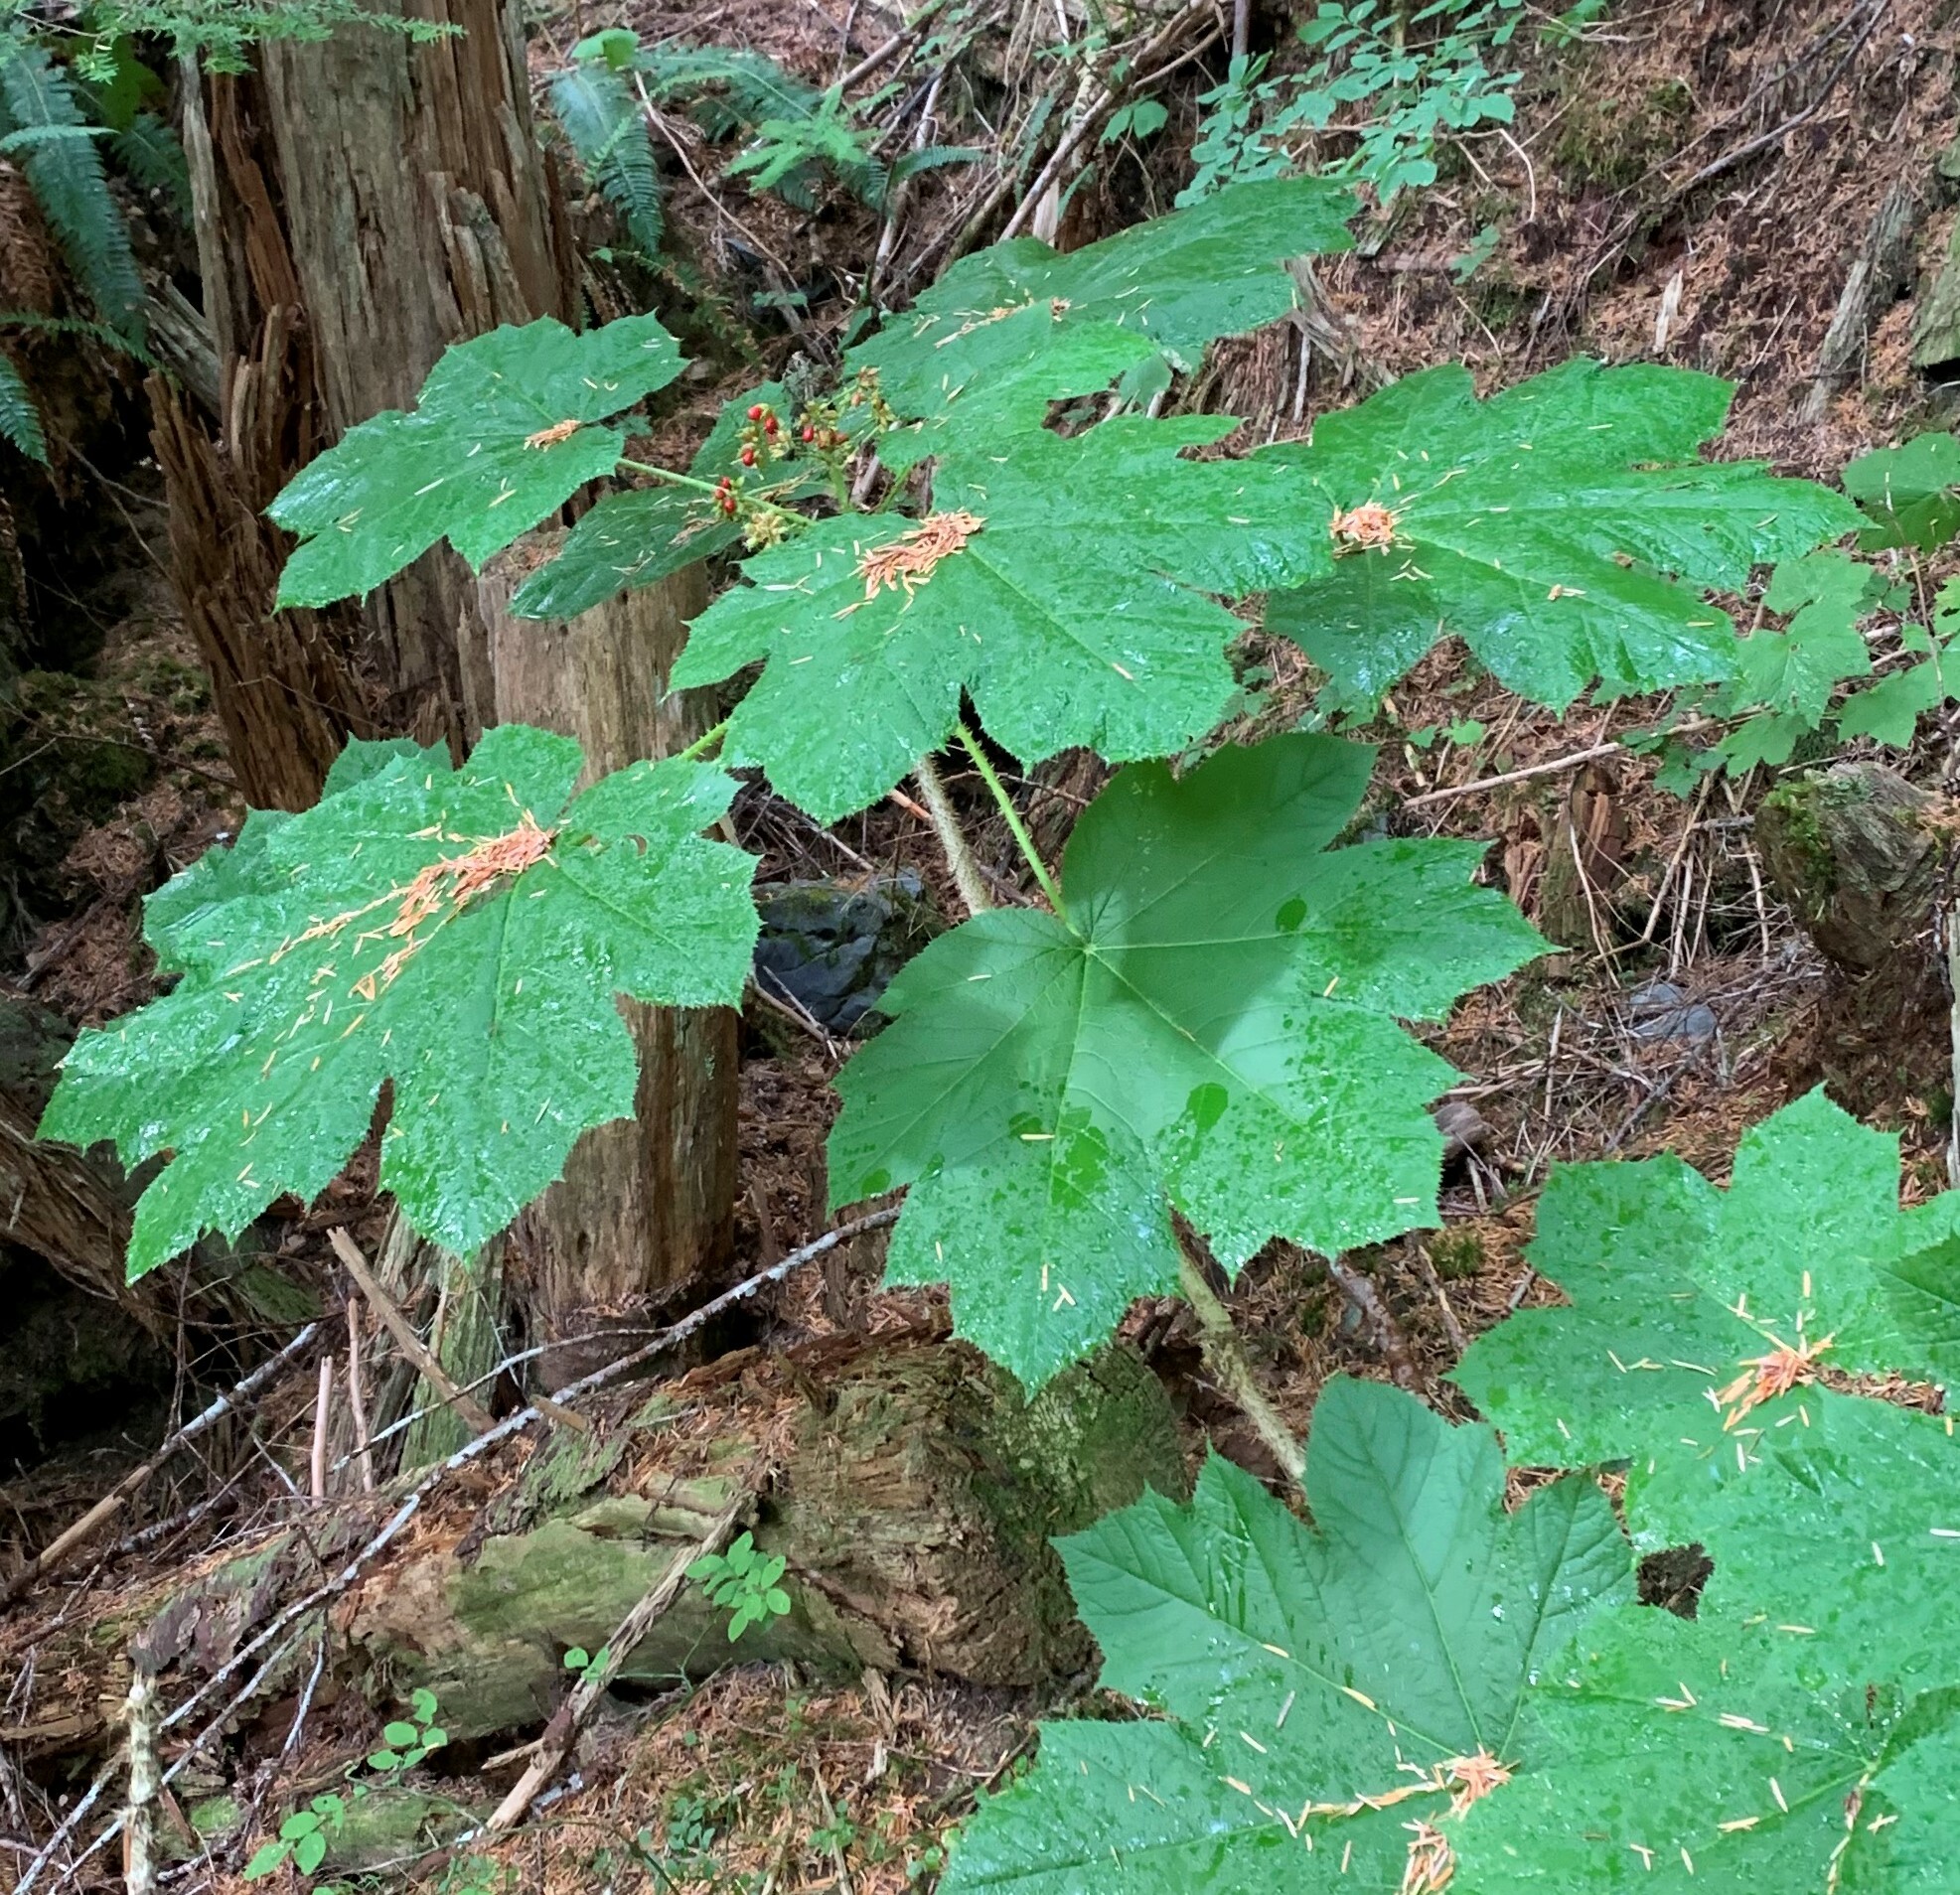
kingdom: Plantae
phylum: Tracheophyta
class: Magnoliopsida
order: Apiales
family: Araliaceae
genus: Oplopanax
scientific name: Oplopanax horridus
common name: Devil's walking-stick
